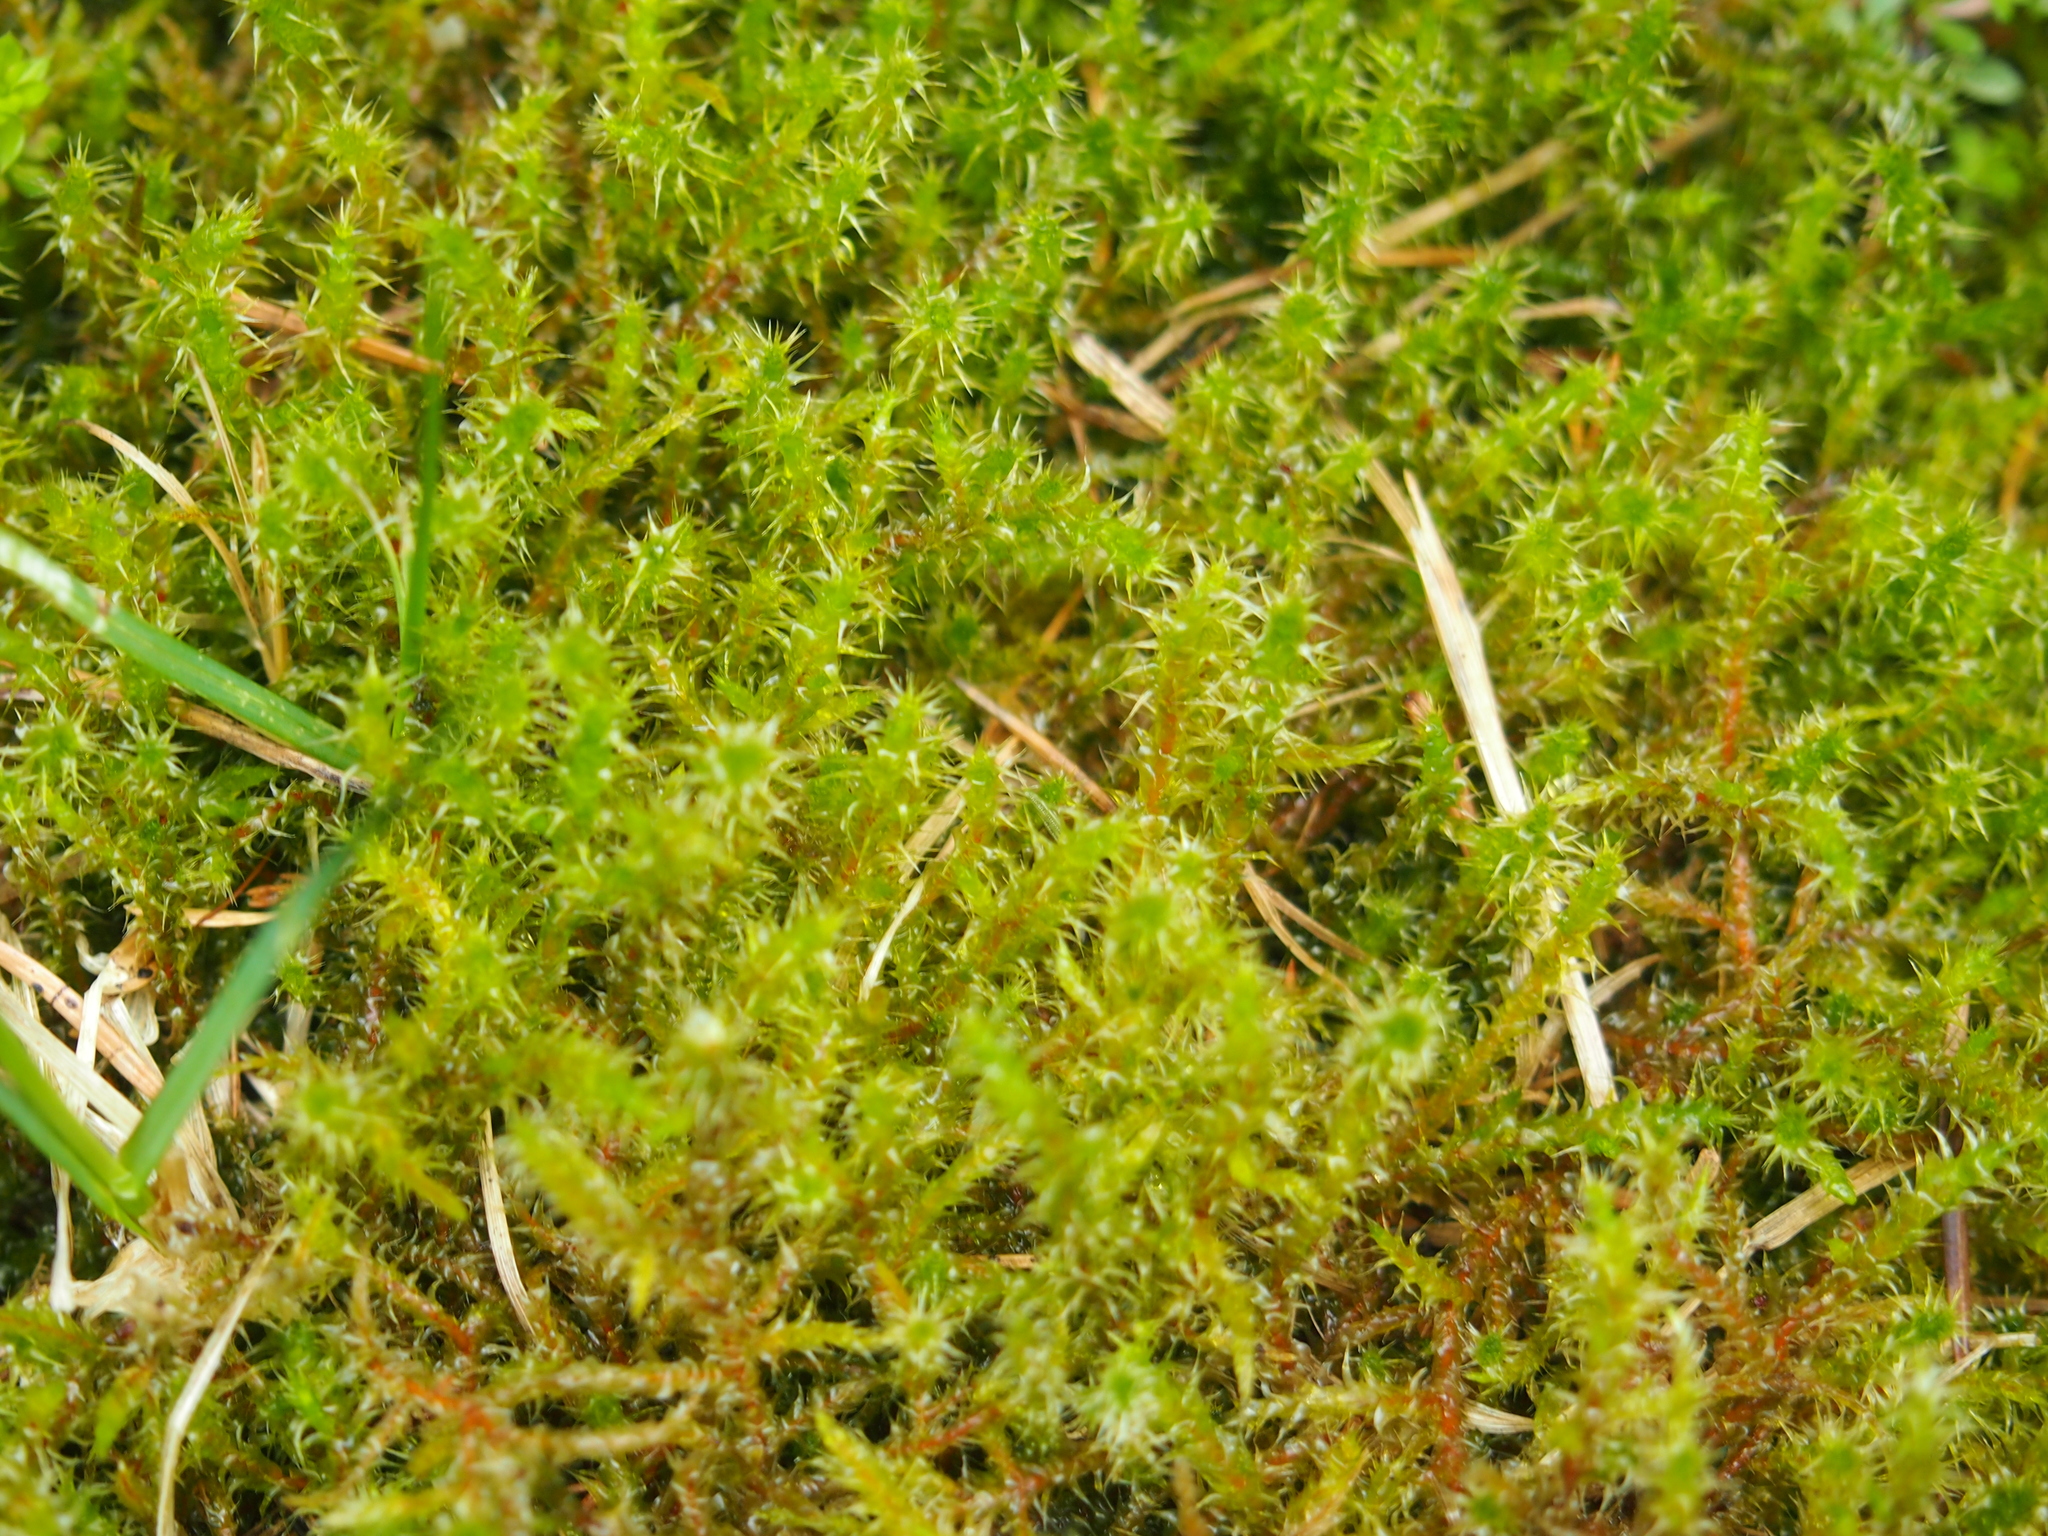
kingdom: Plantae
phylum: Bryophyta
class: Bryopsida
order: Hypnales
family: Hylocomiaceae
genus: Rhytidiadelphus
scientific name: Rhytidiadelphus squarrosus
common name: Springy turf-moss
